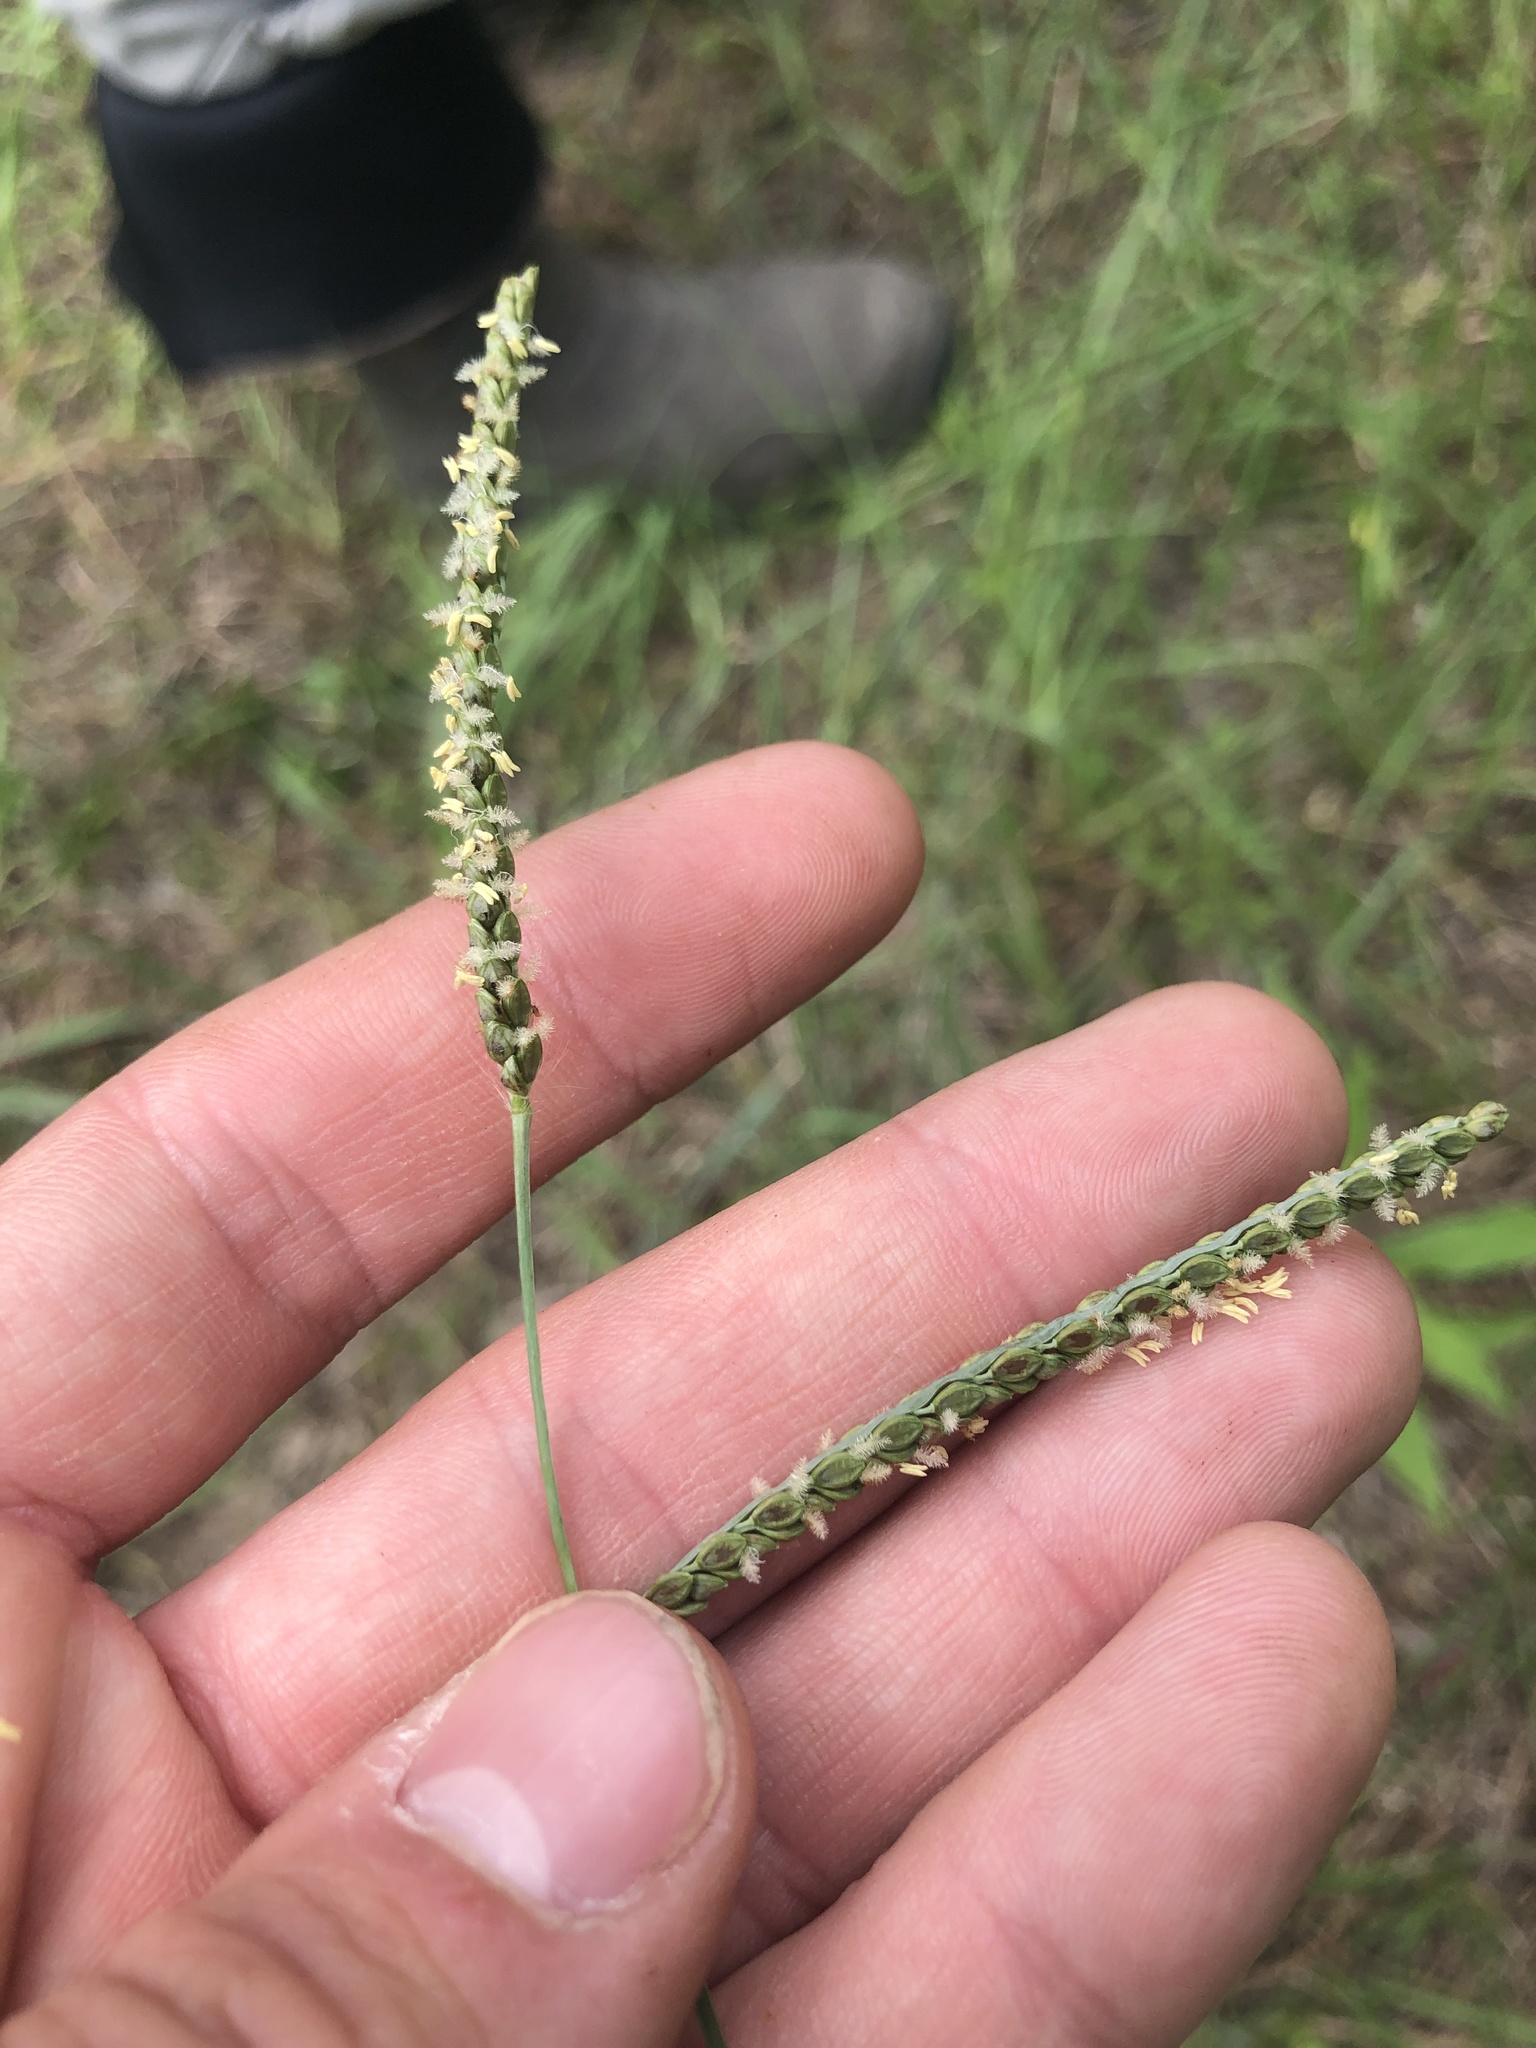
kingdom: Plantae
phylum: Tracheophyta
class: Liliopsida
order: Poales
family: Poaceae
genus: Paspalum
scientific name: Paspalum plicatulum
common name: Top paspalum
